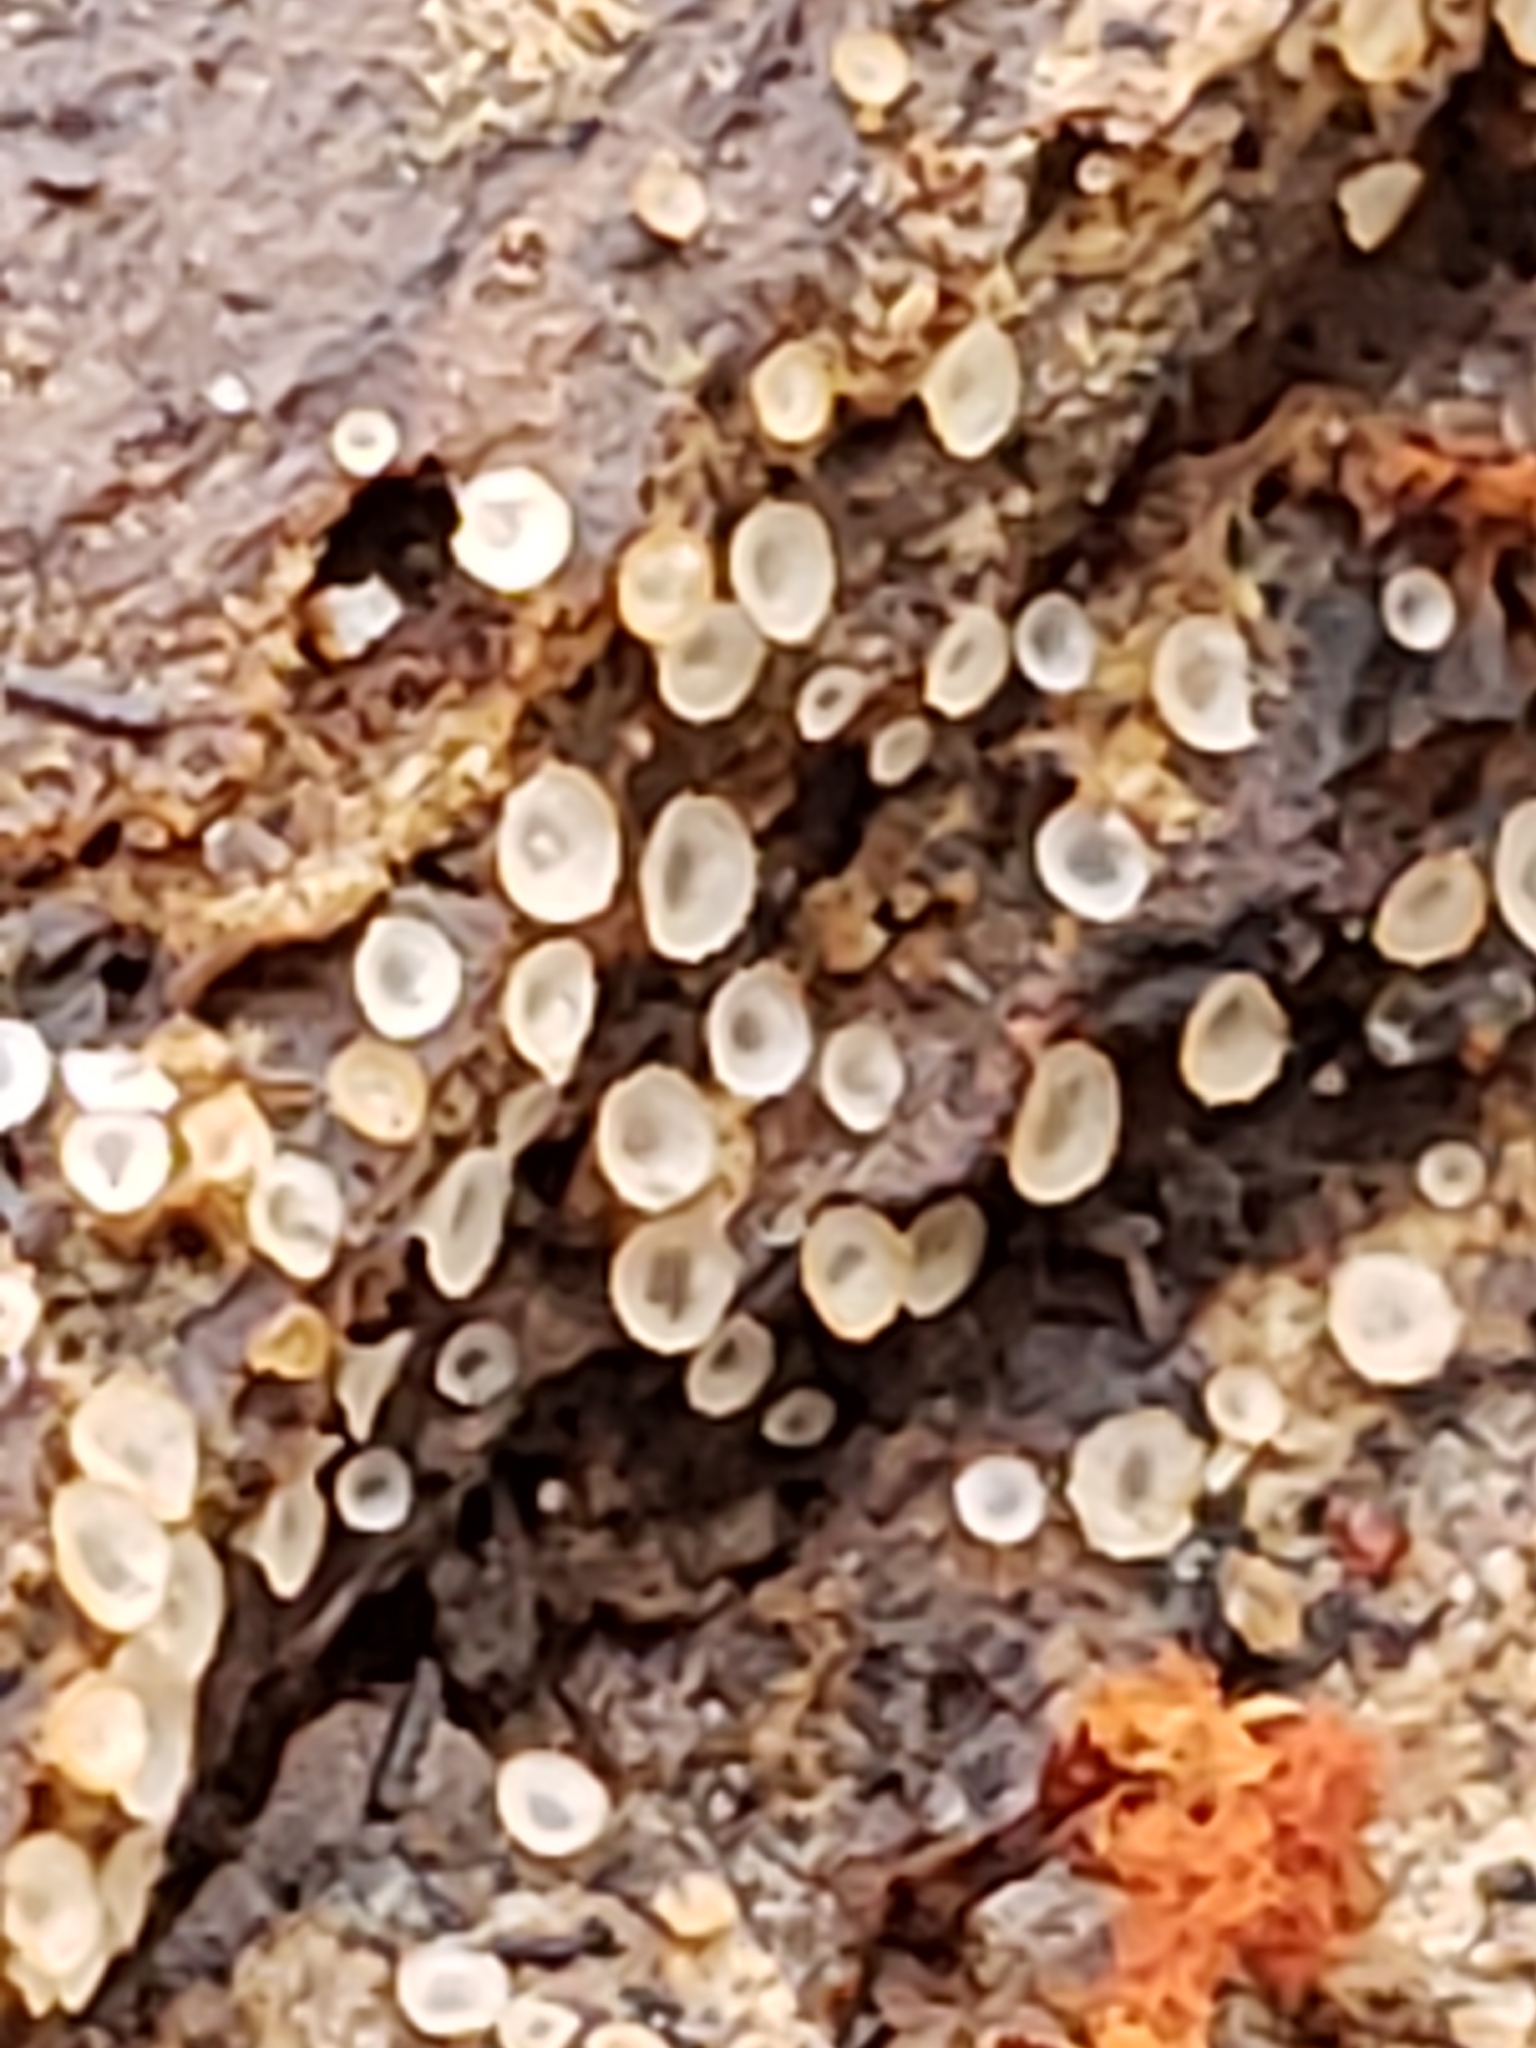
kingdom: Fungi
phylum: Ascomycota
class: Orbiliomycetes
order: Orbiliales
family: Orbiliaceae
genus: Hyalorbilia
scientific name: Hyalorbilia
